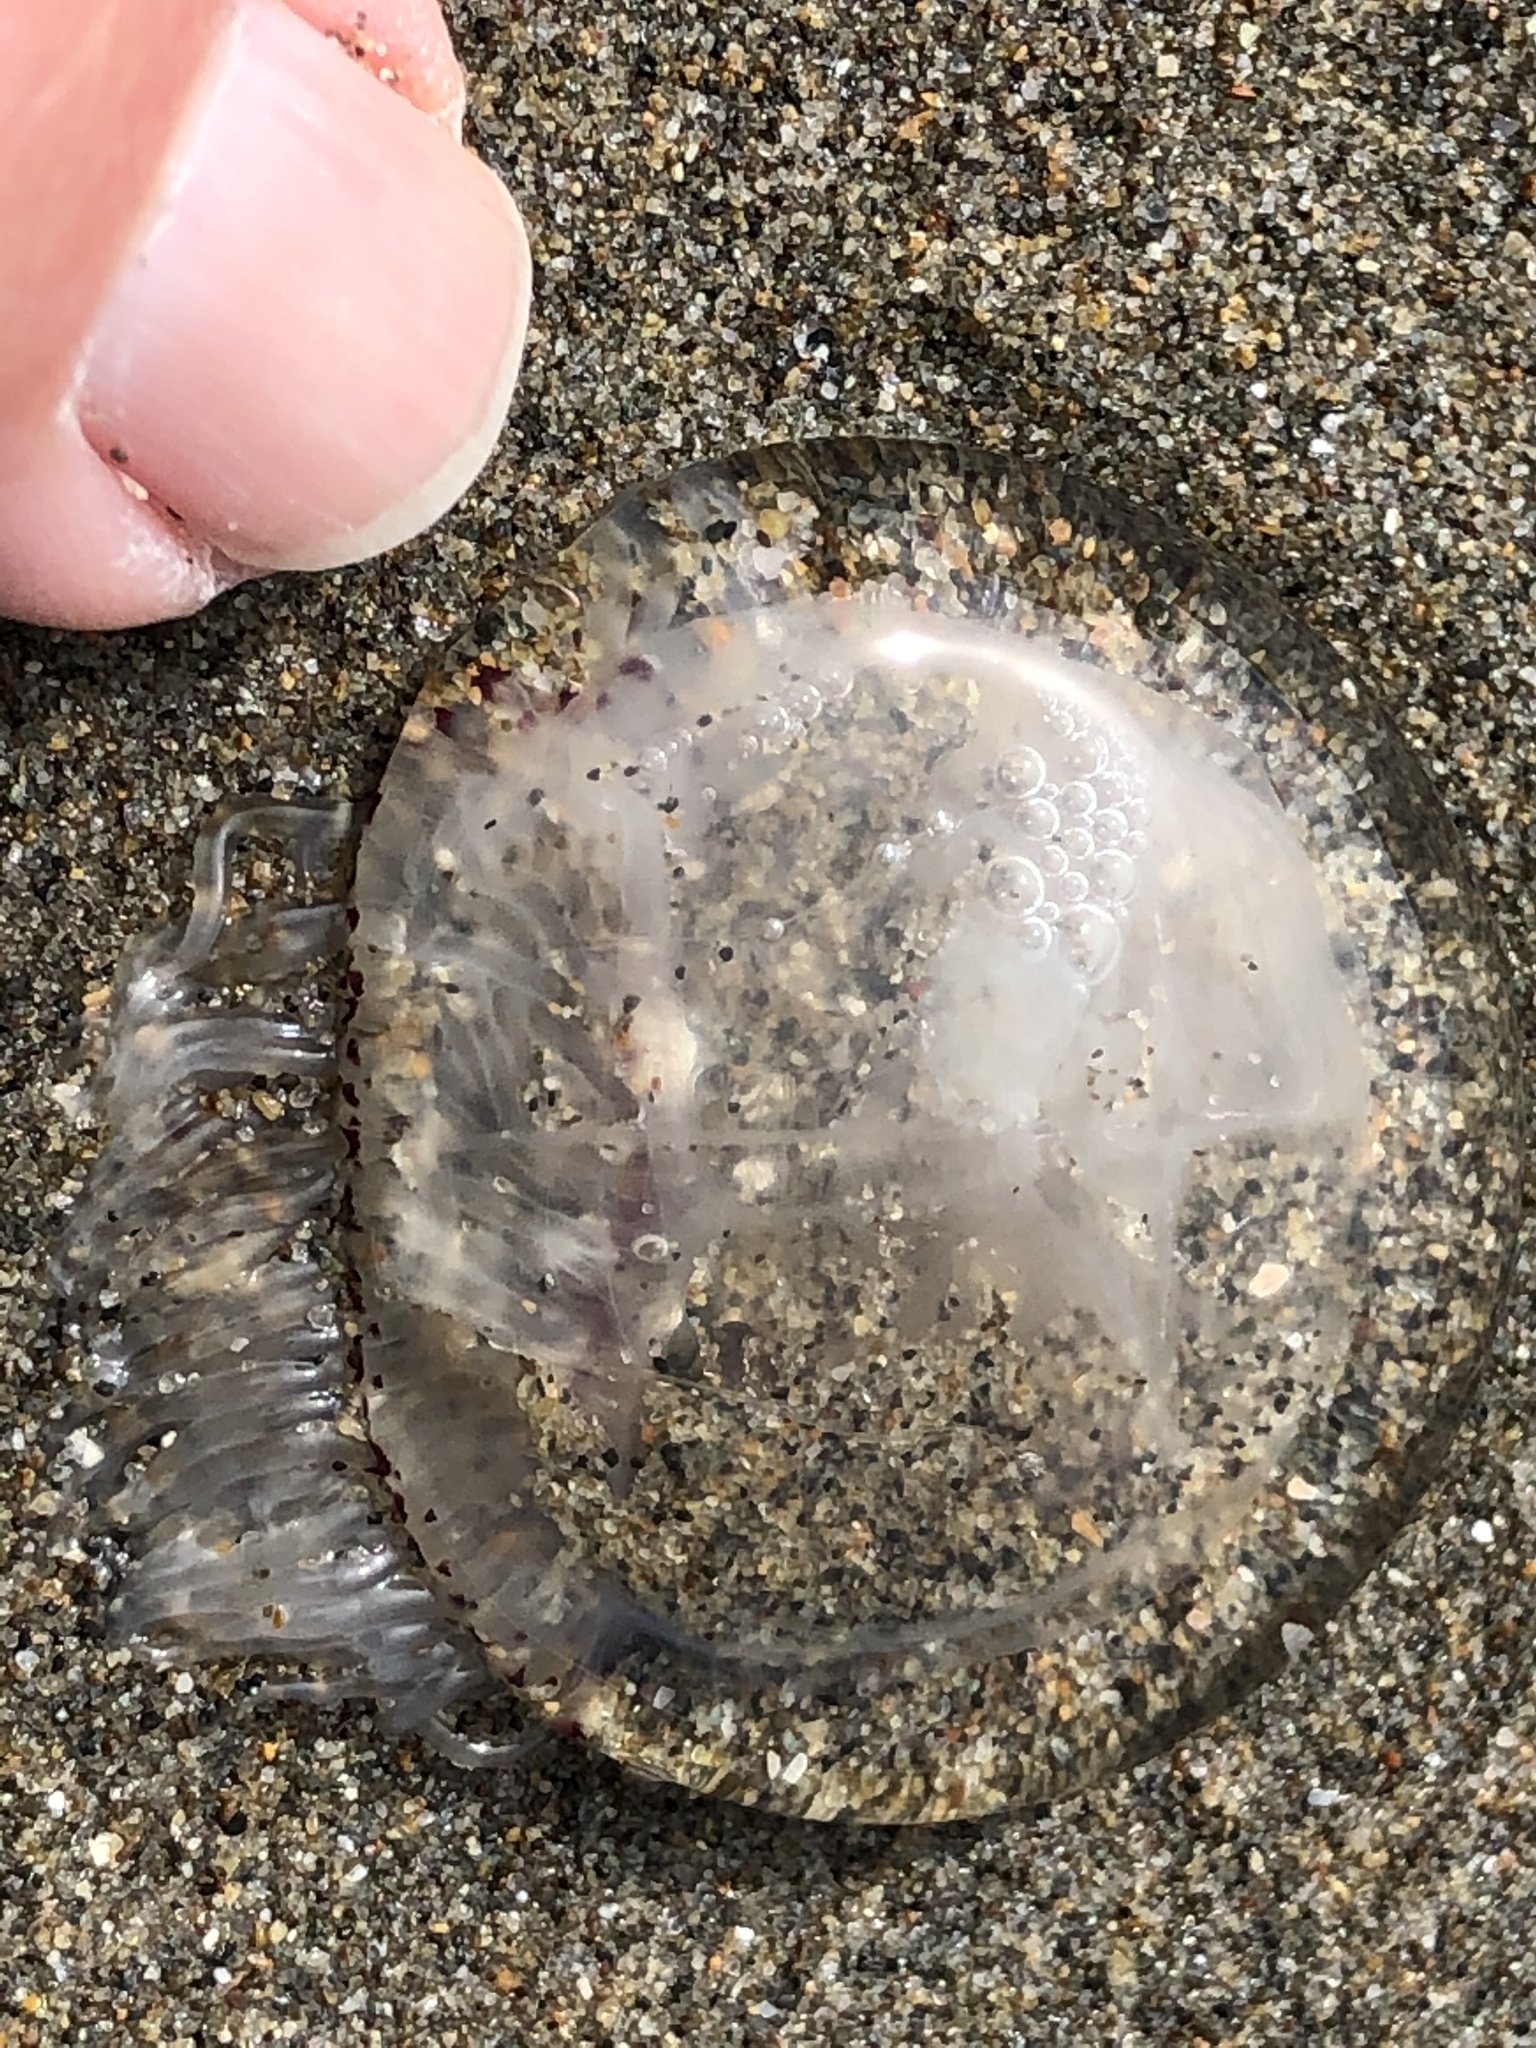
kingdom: Animalia
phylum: Cnidaria
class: Hydrozoa
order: Anthoathecata
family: Corynidae
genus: Polyorchis
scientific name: Polyorchis penicillatus
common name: Penicillate jellyfish
